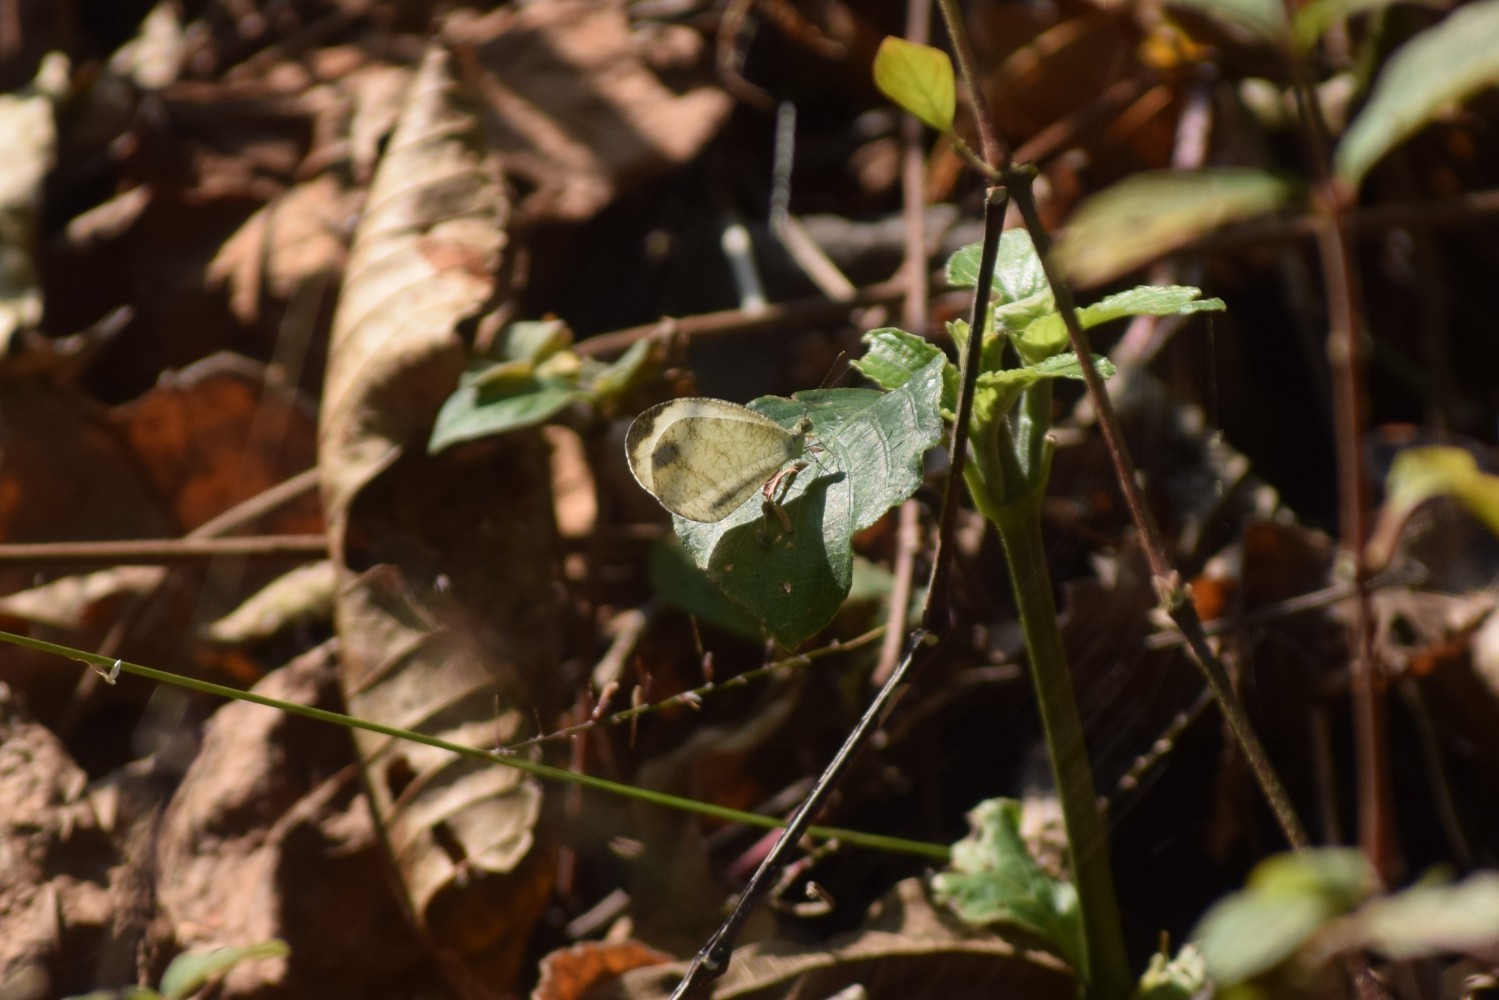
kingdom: Animalia
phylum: Arthropoda
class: Insecta
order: Lepidoptera
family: Pieridae
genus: Leptosia
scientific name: Leptosia nina
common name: Psyche
